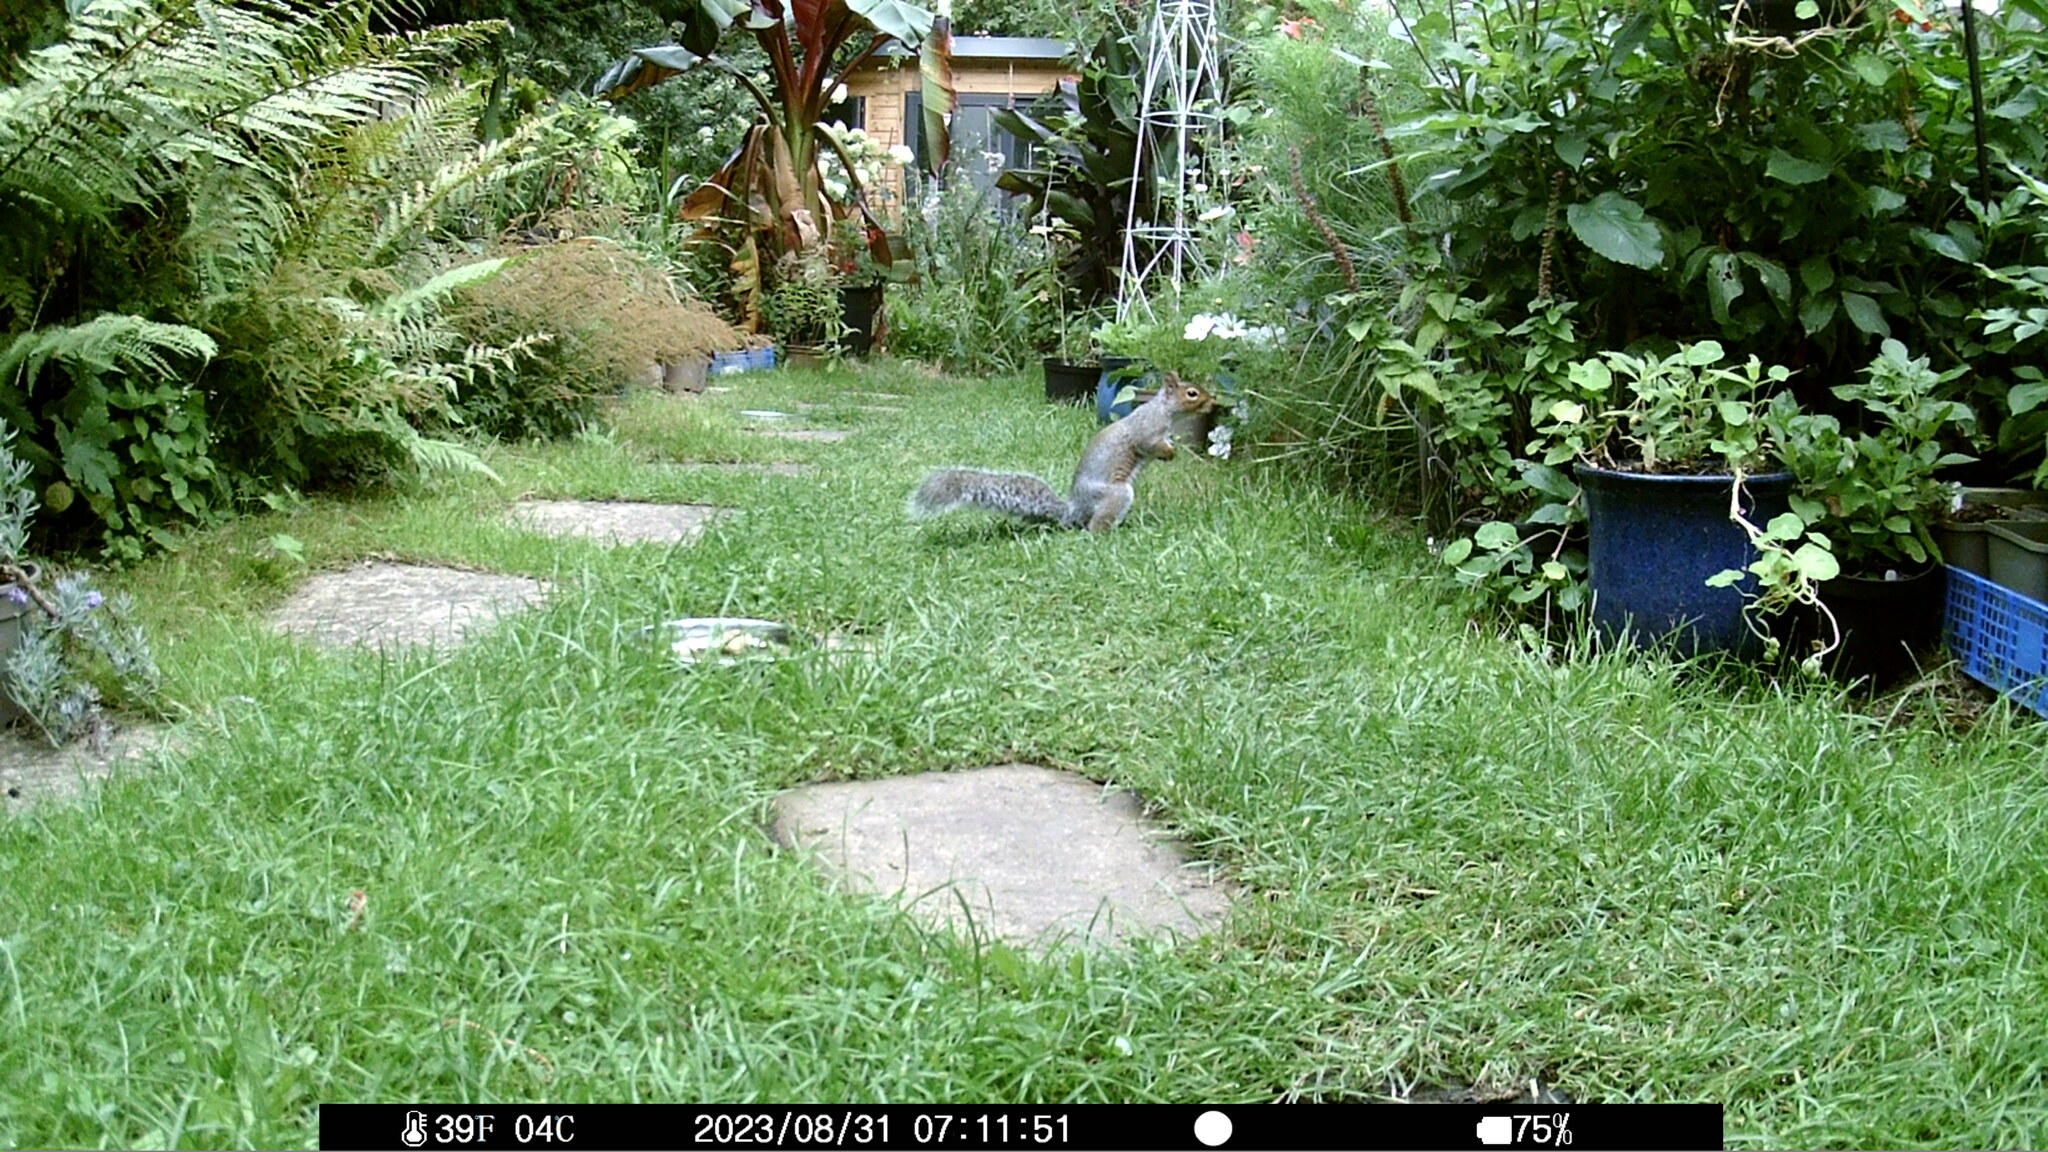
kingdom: Animalia
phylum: Chordata
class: Mammalia
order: Rodentia
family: Sciuridae
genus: Sciurus
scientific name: Sciurus carolinensis
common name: Eastern gray squirrel
